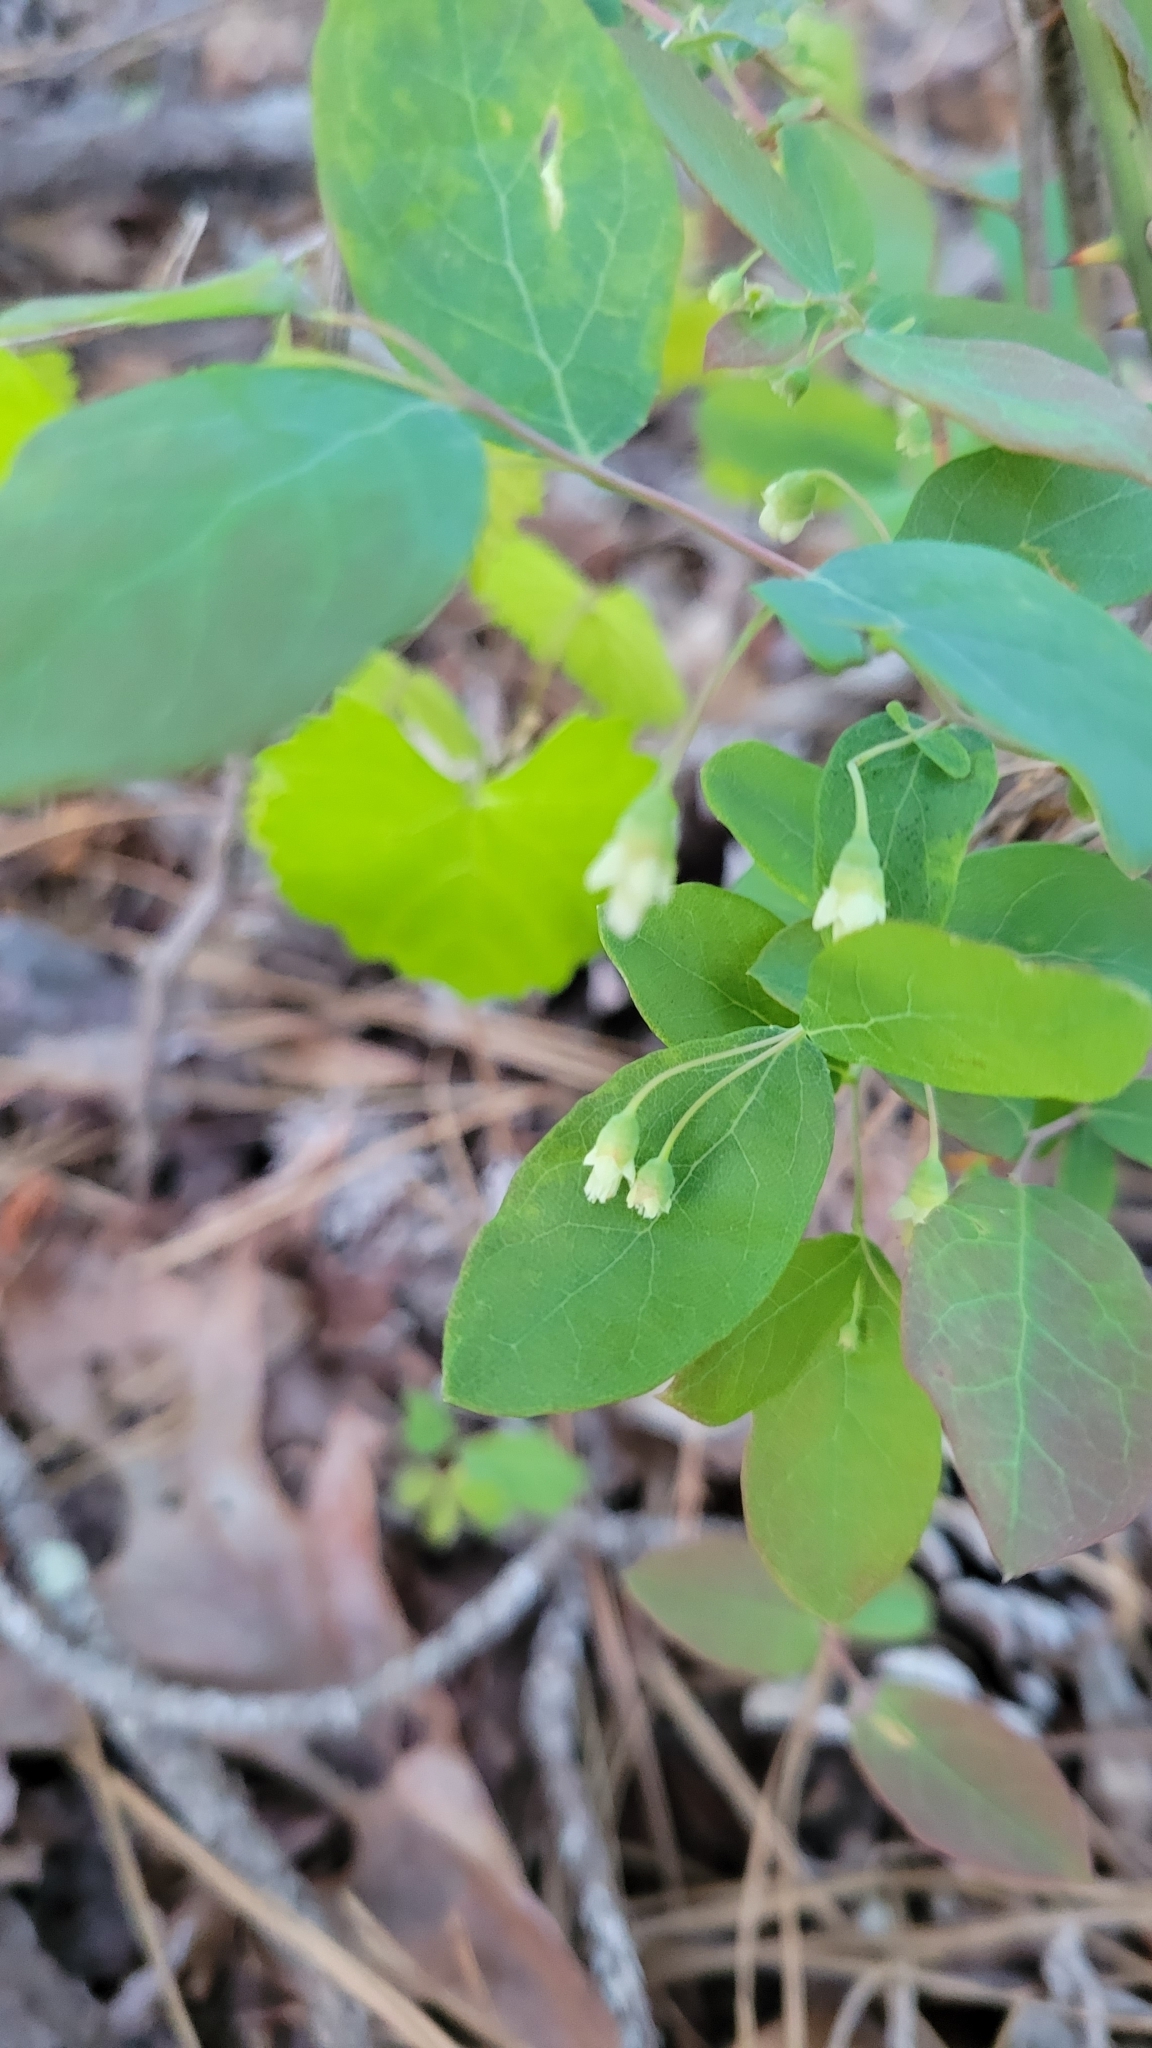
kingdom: Plantae
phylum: Tracheophyta
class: Magnoliopsida
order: Ericales
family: Ericaceae
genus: Vaccinium
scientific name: Vaccinium stamineum
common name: Deerberry
